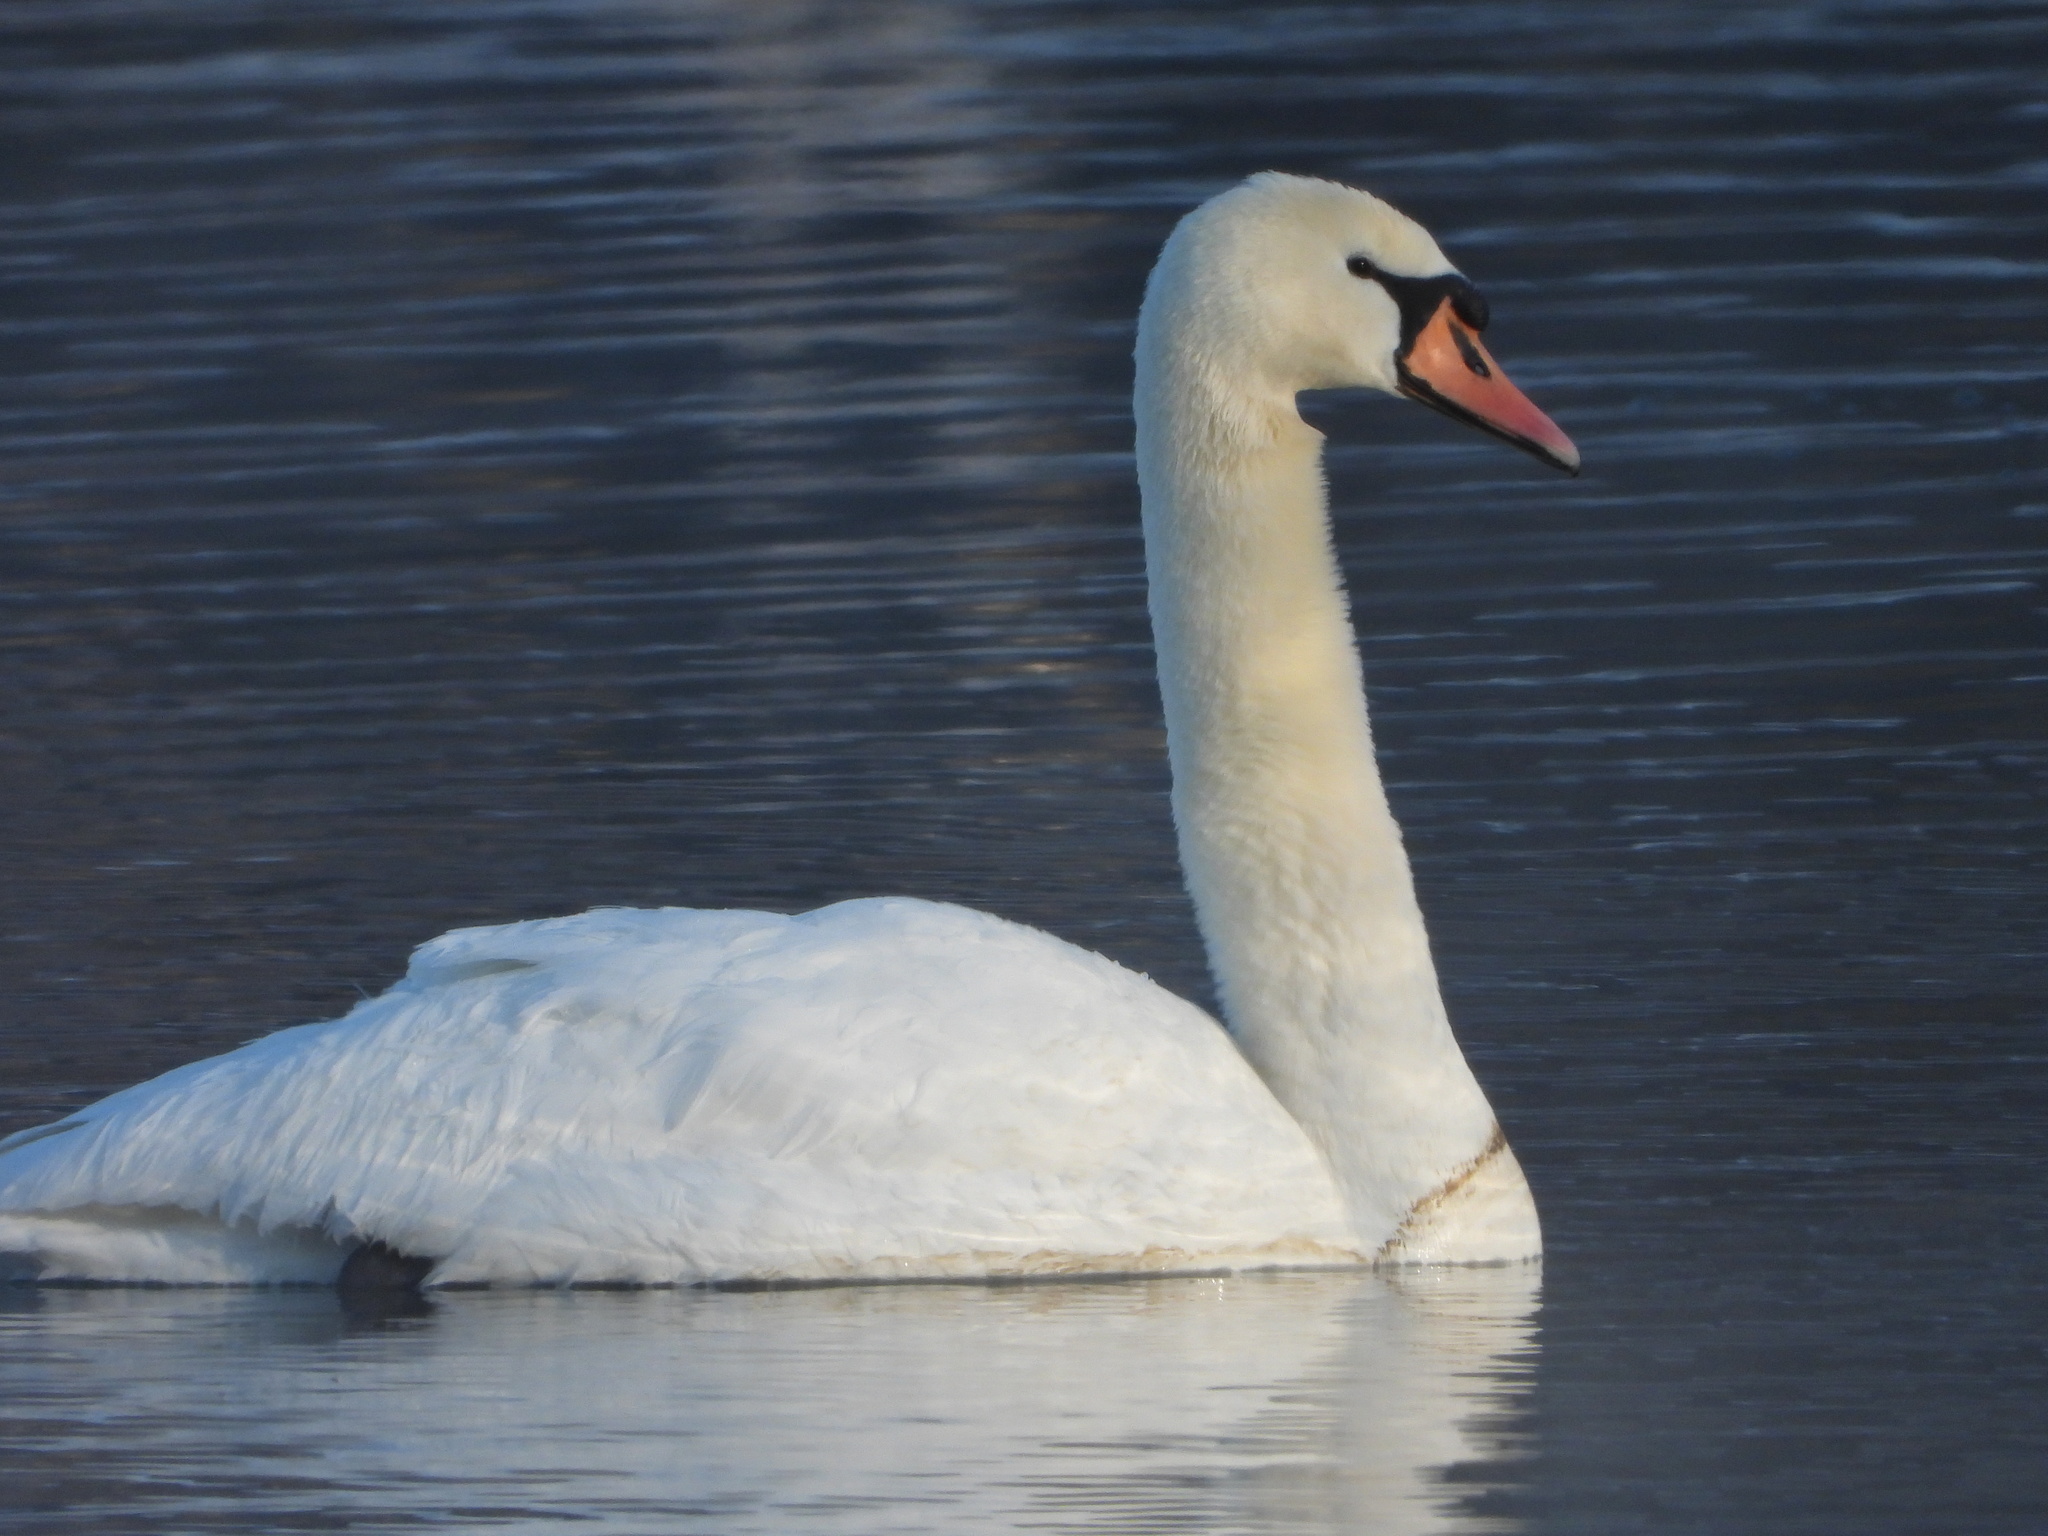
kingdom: Animalia
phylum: Chordata
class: Aves
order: Anseriformes
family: Anatidae
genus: Cygnus
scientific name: Cygnus olor
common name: Mute swan
